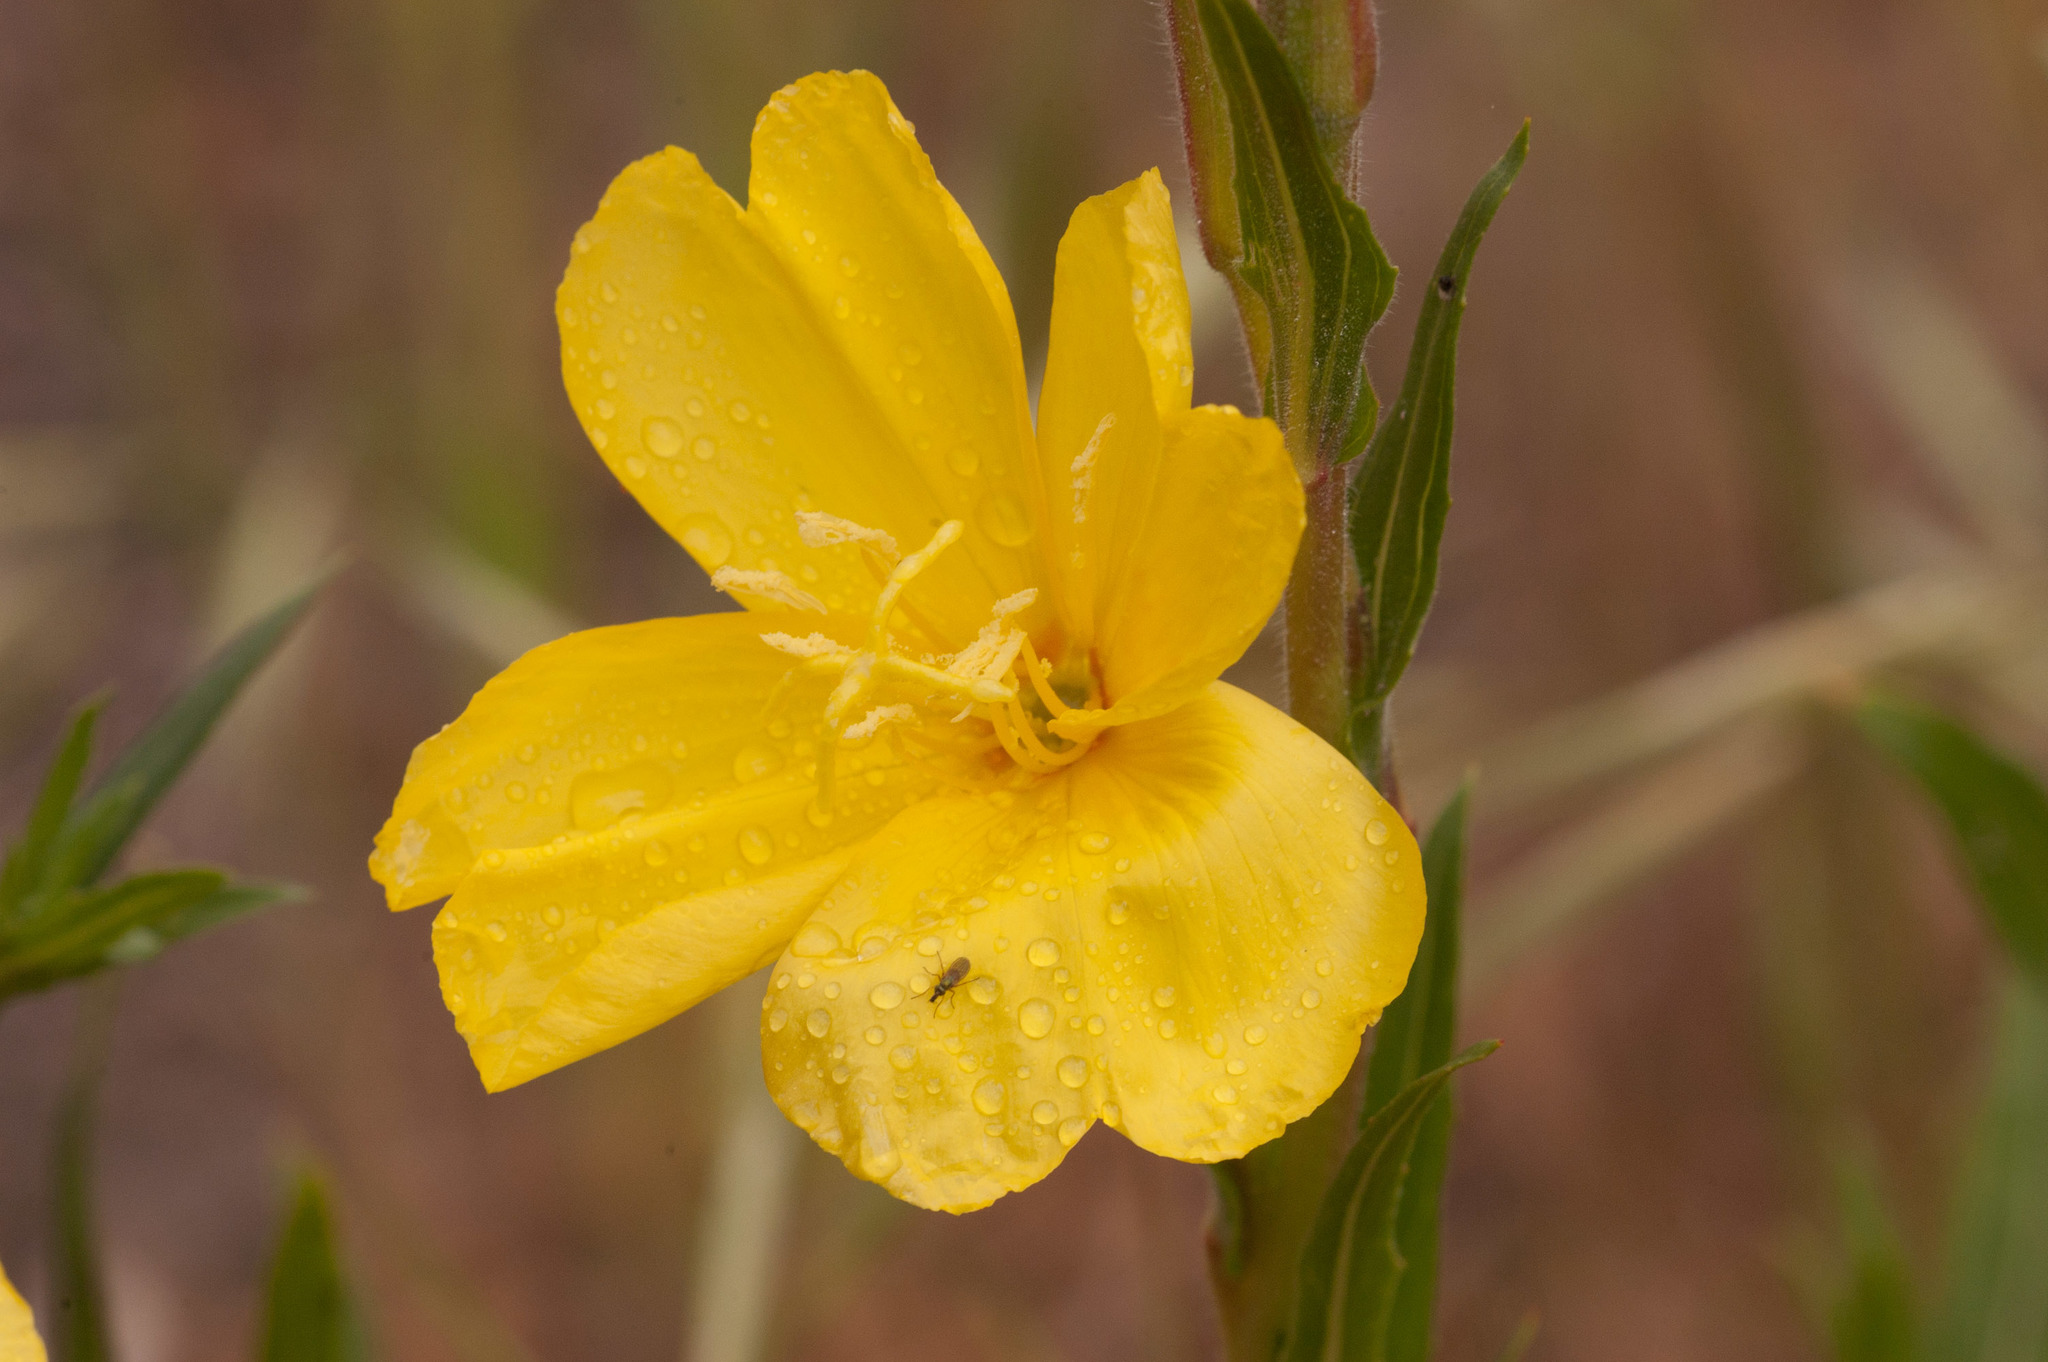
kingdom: Plantae
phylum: Tracheophyta
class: Magnoliopsida
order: Myrtales
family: Onagraceae
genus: Oenothera
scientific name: Oenothera stricta
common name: Fragrant evening-primrose
